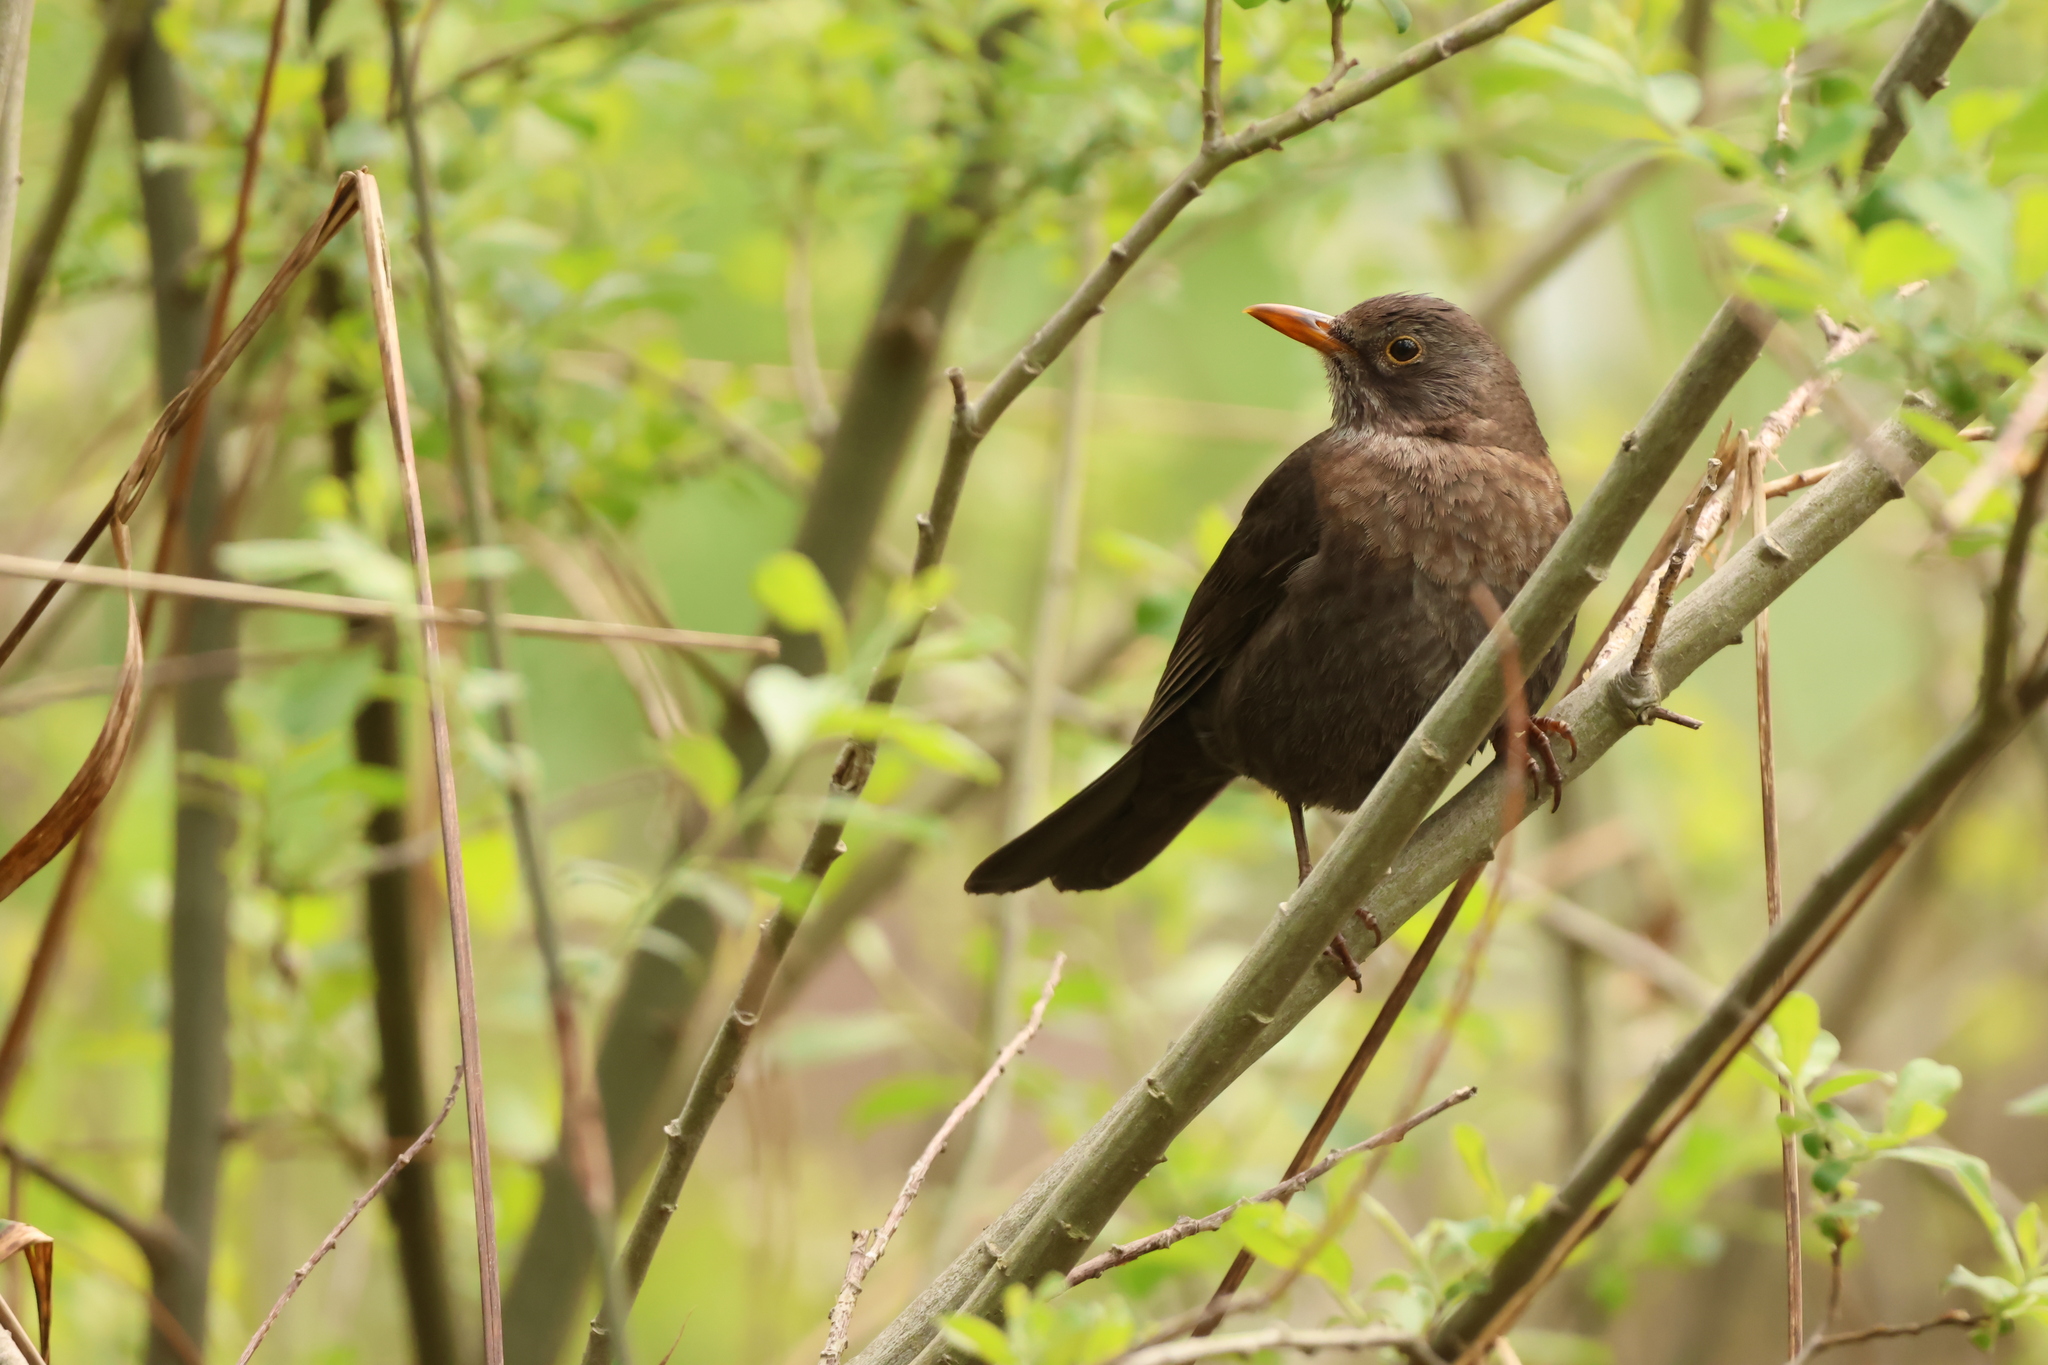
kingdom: Animalia
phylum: Chordata
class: Aves
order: Passeriformes
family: Turdidae
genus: Turdus
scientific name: Turdus merula
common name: Common blackbird
